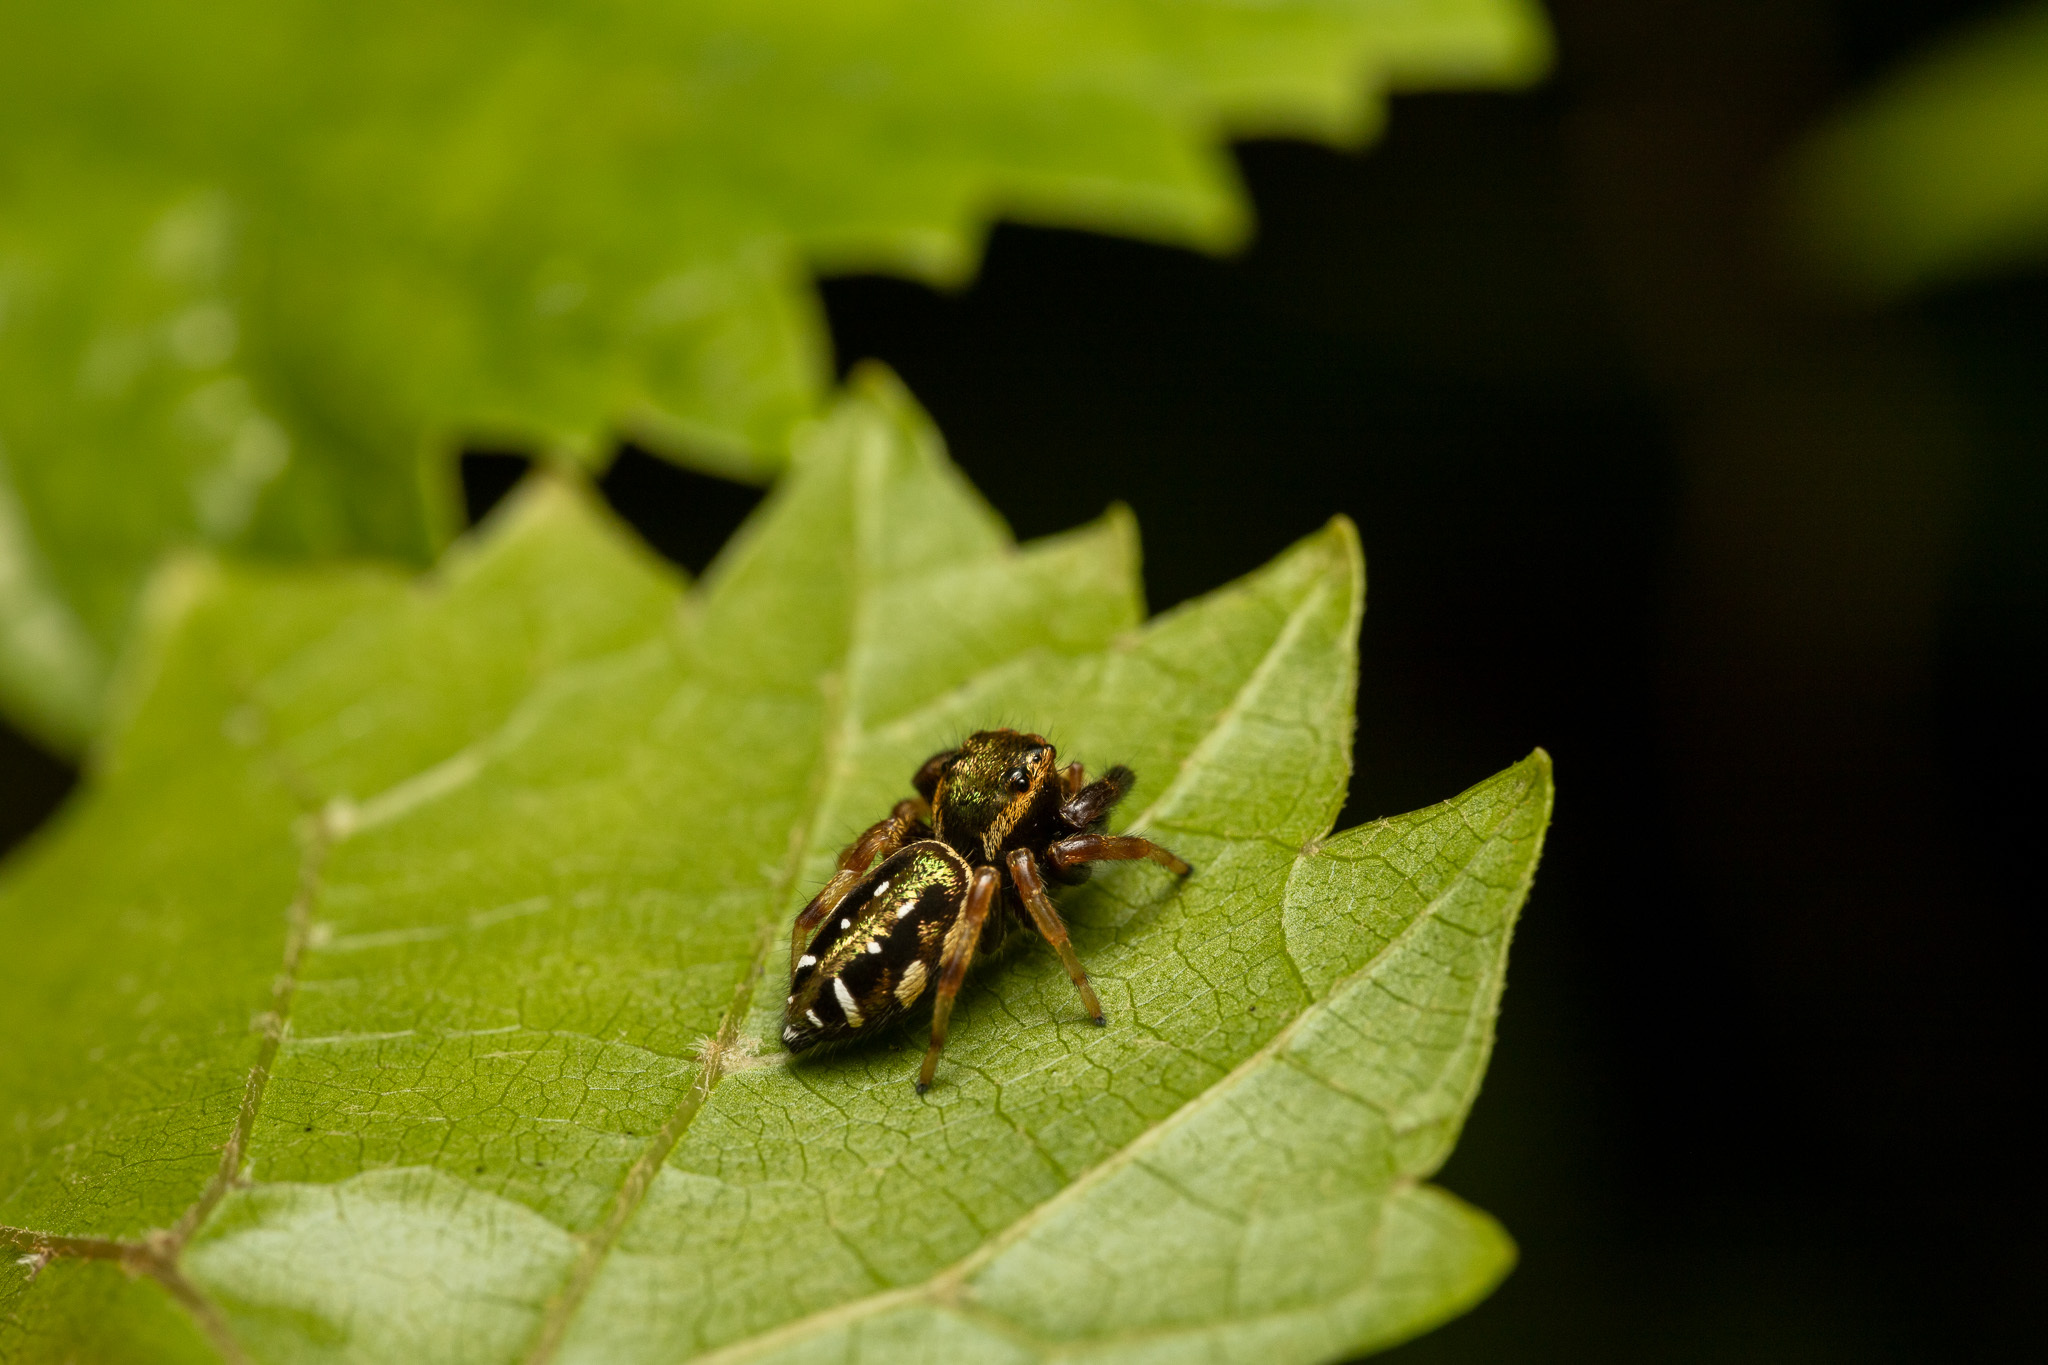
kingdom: Animalia
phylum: Arthropoda
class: Arachnida
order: Araneae
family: Salticidae
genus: Paraphidippus
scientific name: Paraphidippus aurantius
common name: Jumping spiders
